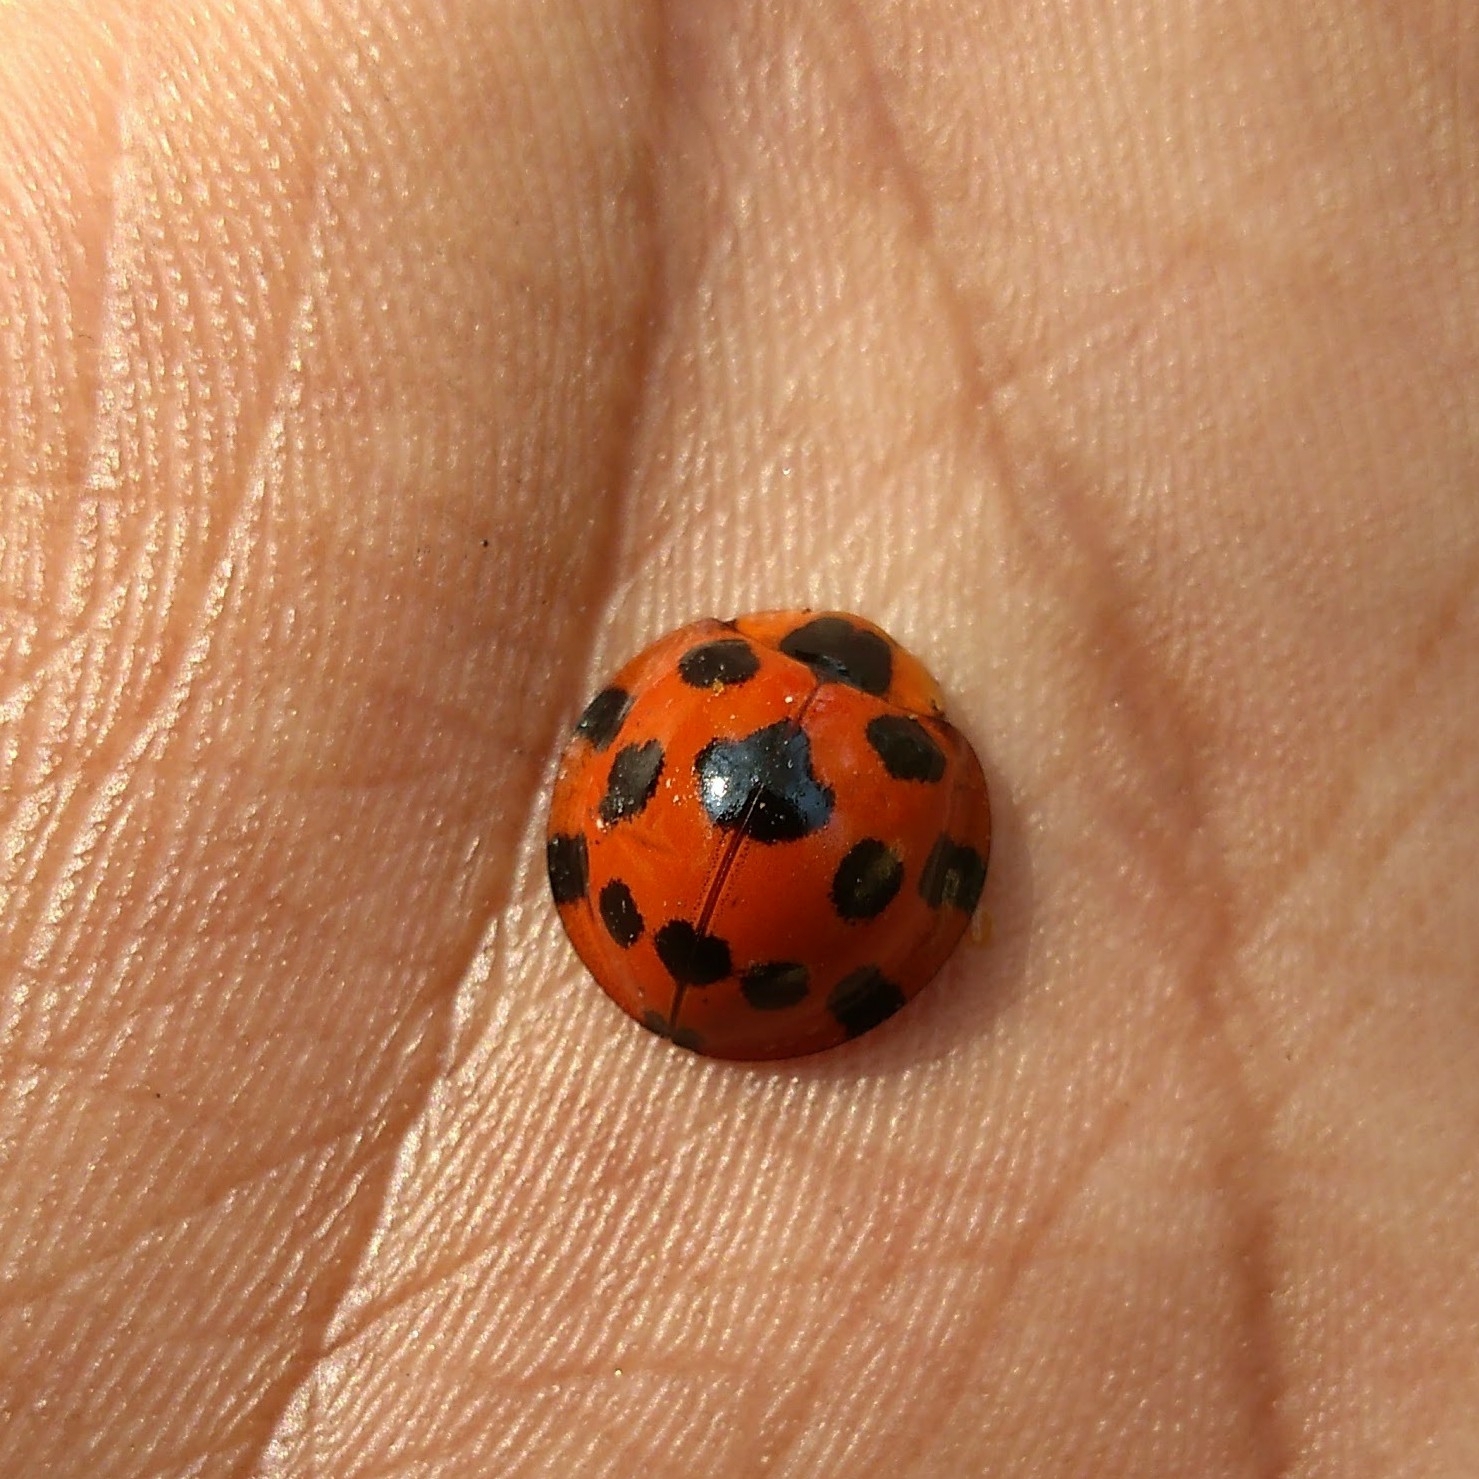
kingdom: Animalia
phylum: Arthropoda
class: Insecta
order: Coleoptera
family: Coccinellidae
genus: Synonycha
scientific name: Synonycha grandis
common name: Lady beetle
